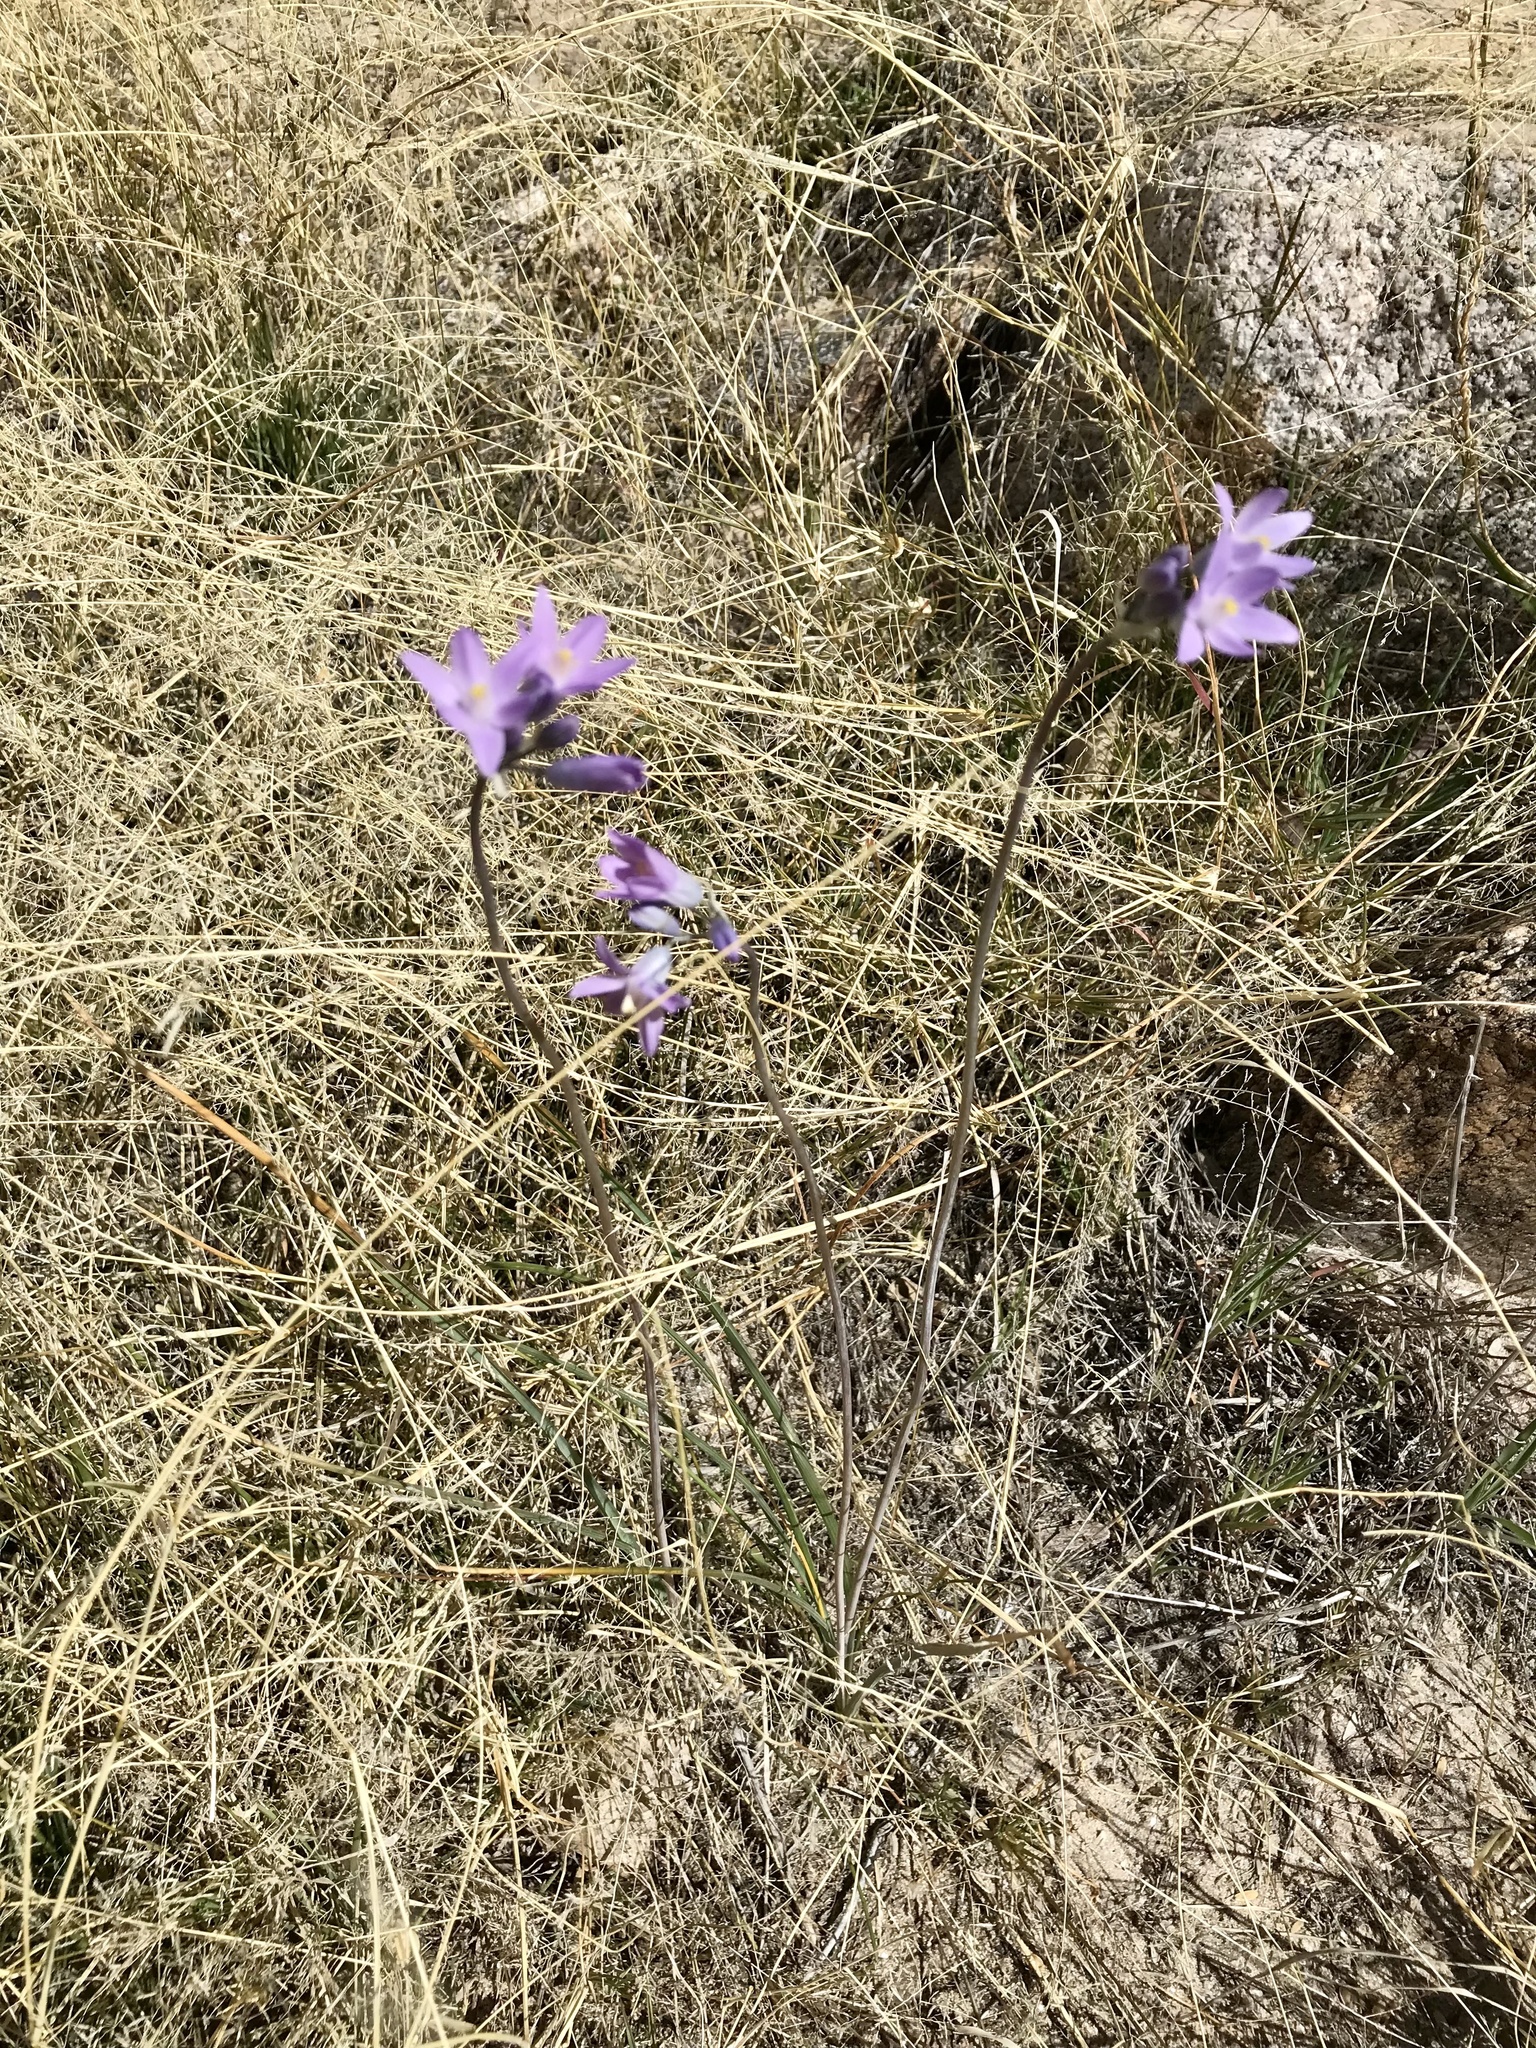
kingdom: Plantae
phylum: Tracheophyta
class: Liliopsida
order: Asparagales
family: Asparagaceae
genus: Dipterostemon
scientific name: Dipterostemon capitatus
